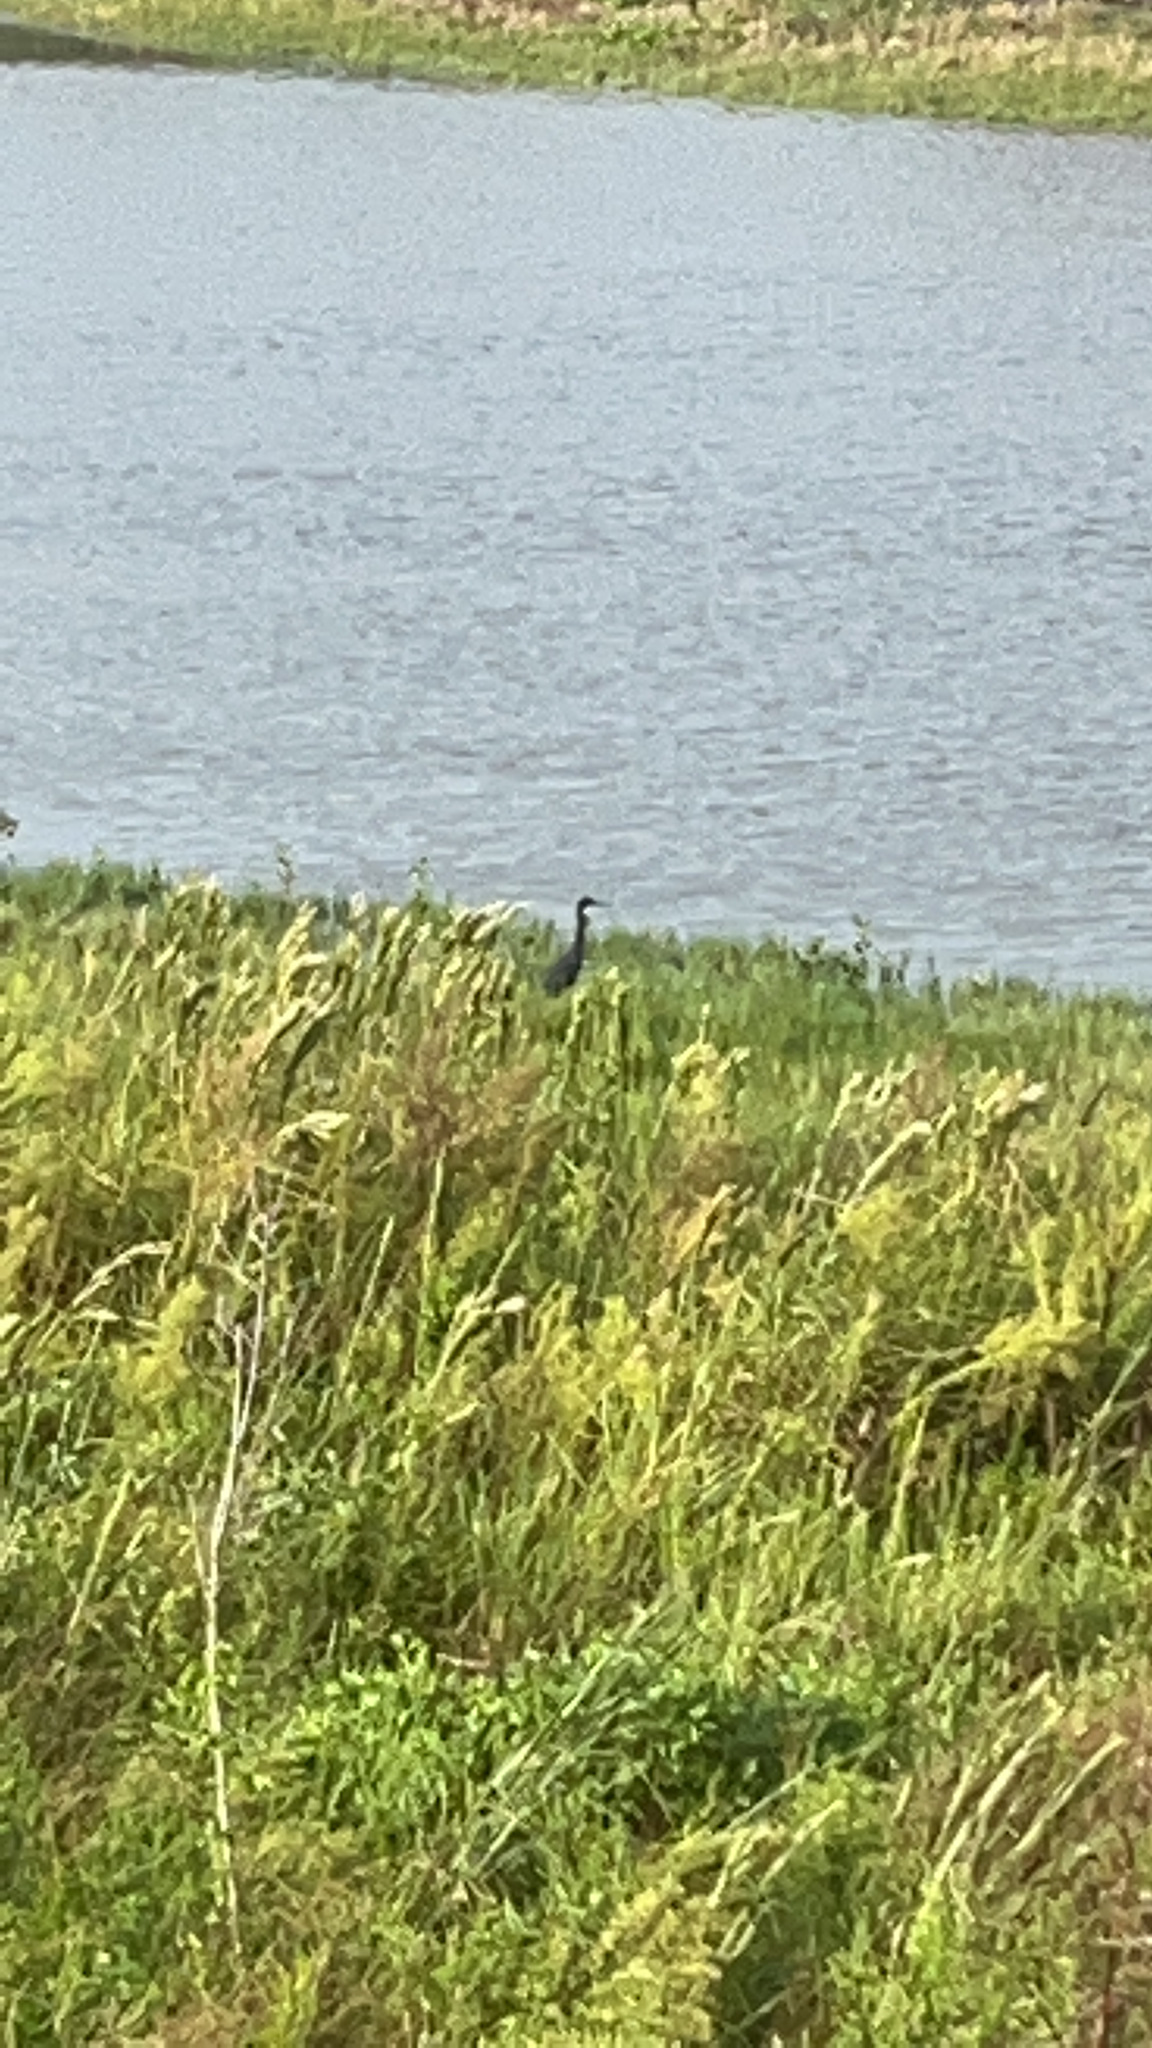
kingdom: Animalia
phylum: Chordata
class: Aves
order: Pelecaniformes
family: Ardeidae
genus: Egretta
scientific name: Egretta caerulea
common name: Little blue heron
